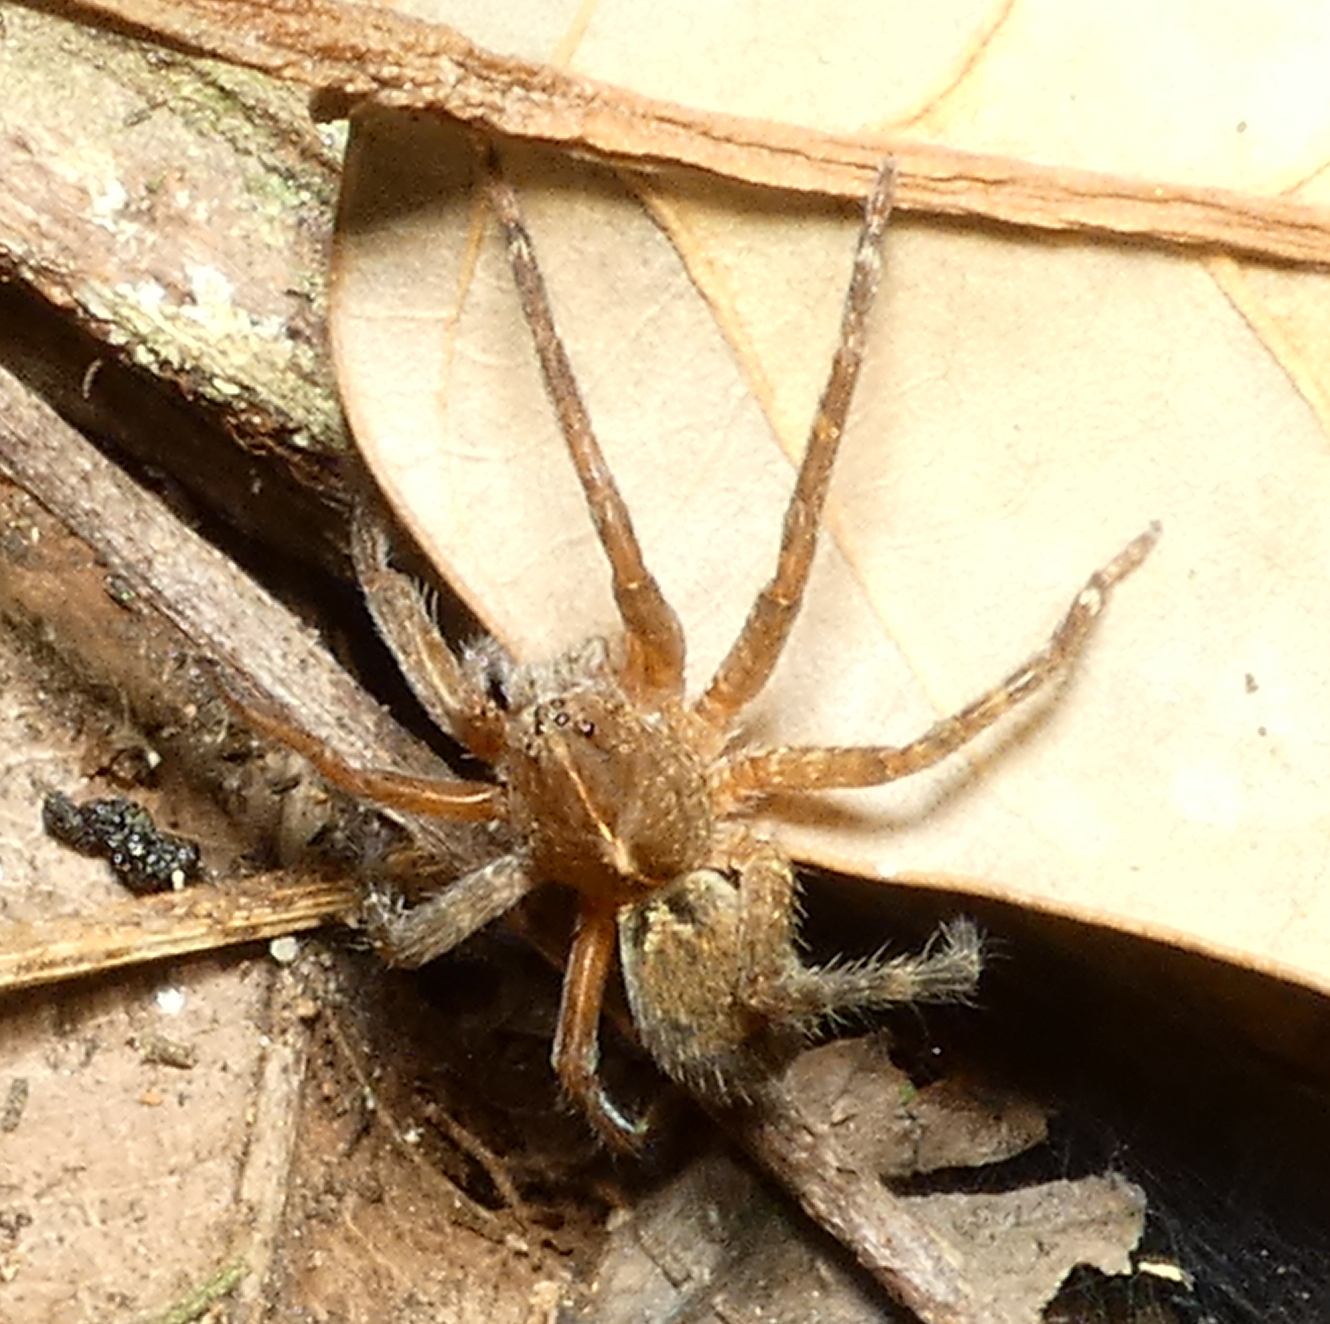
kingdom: Animalia
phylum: Arthropoda
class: Arachnida
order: Araneae
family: Ctenidae
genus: Ctenus
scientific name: Ctenus ornatus
